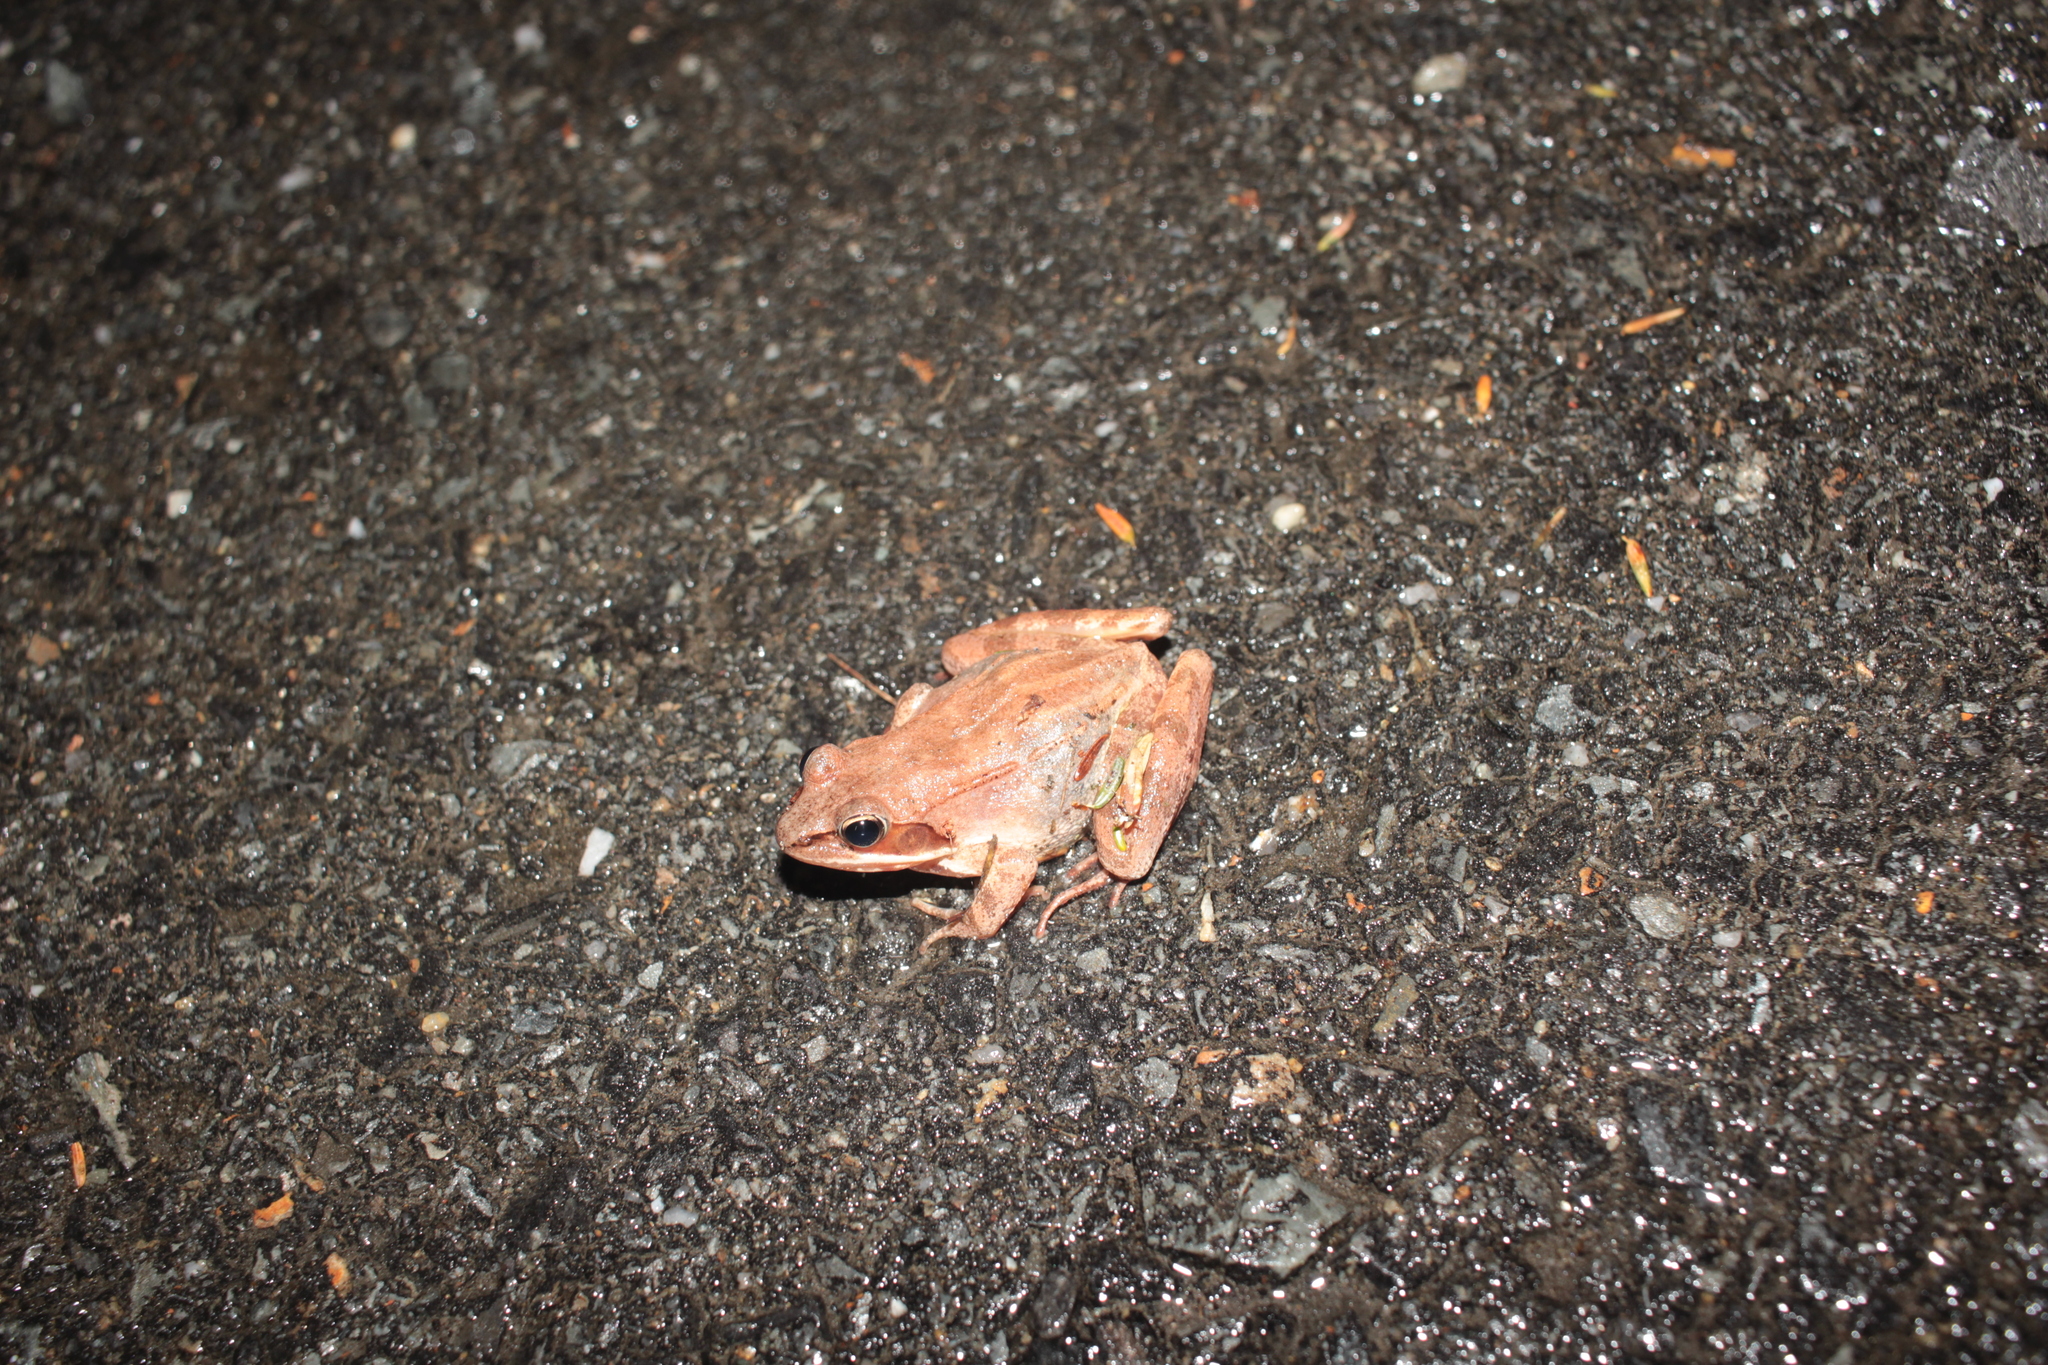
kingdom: Animalia
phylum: Chordata
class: Amphibia
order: Anura
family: Ranidae
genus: Lithobates
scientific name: Lithobates sylvaticus
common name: Wood frog
